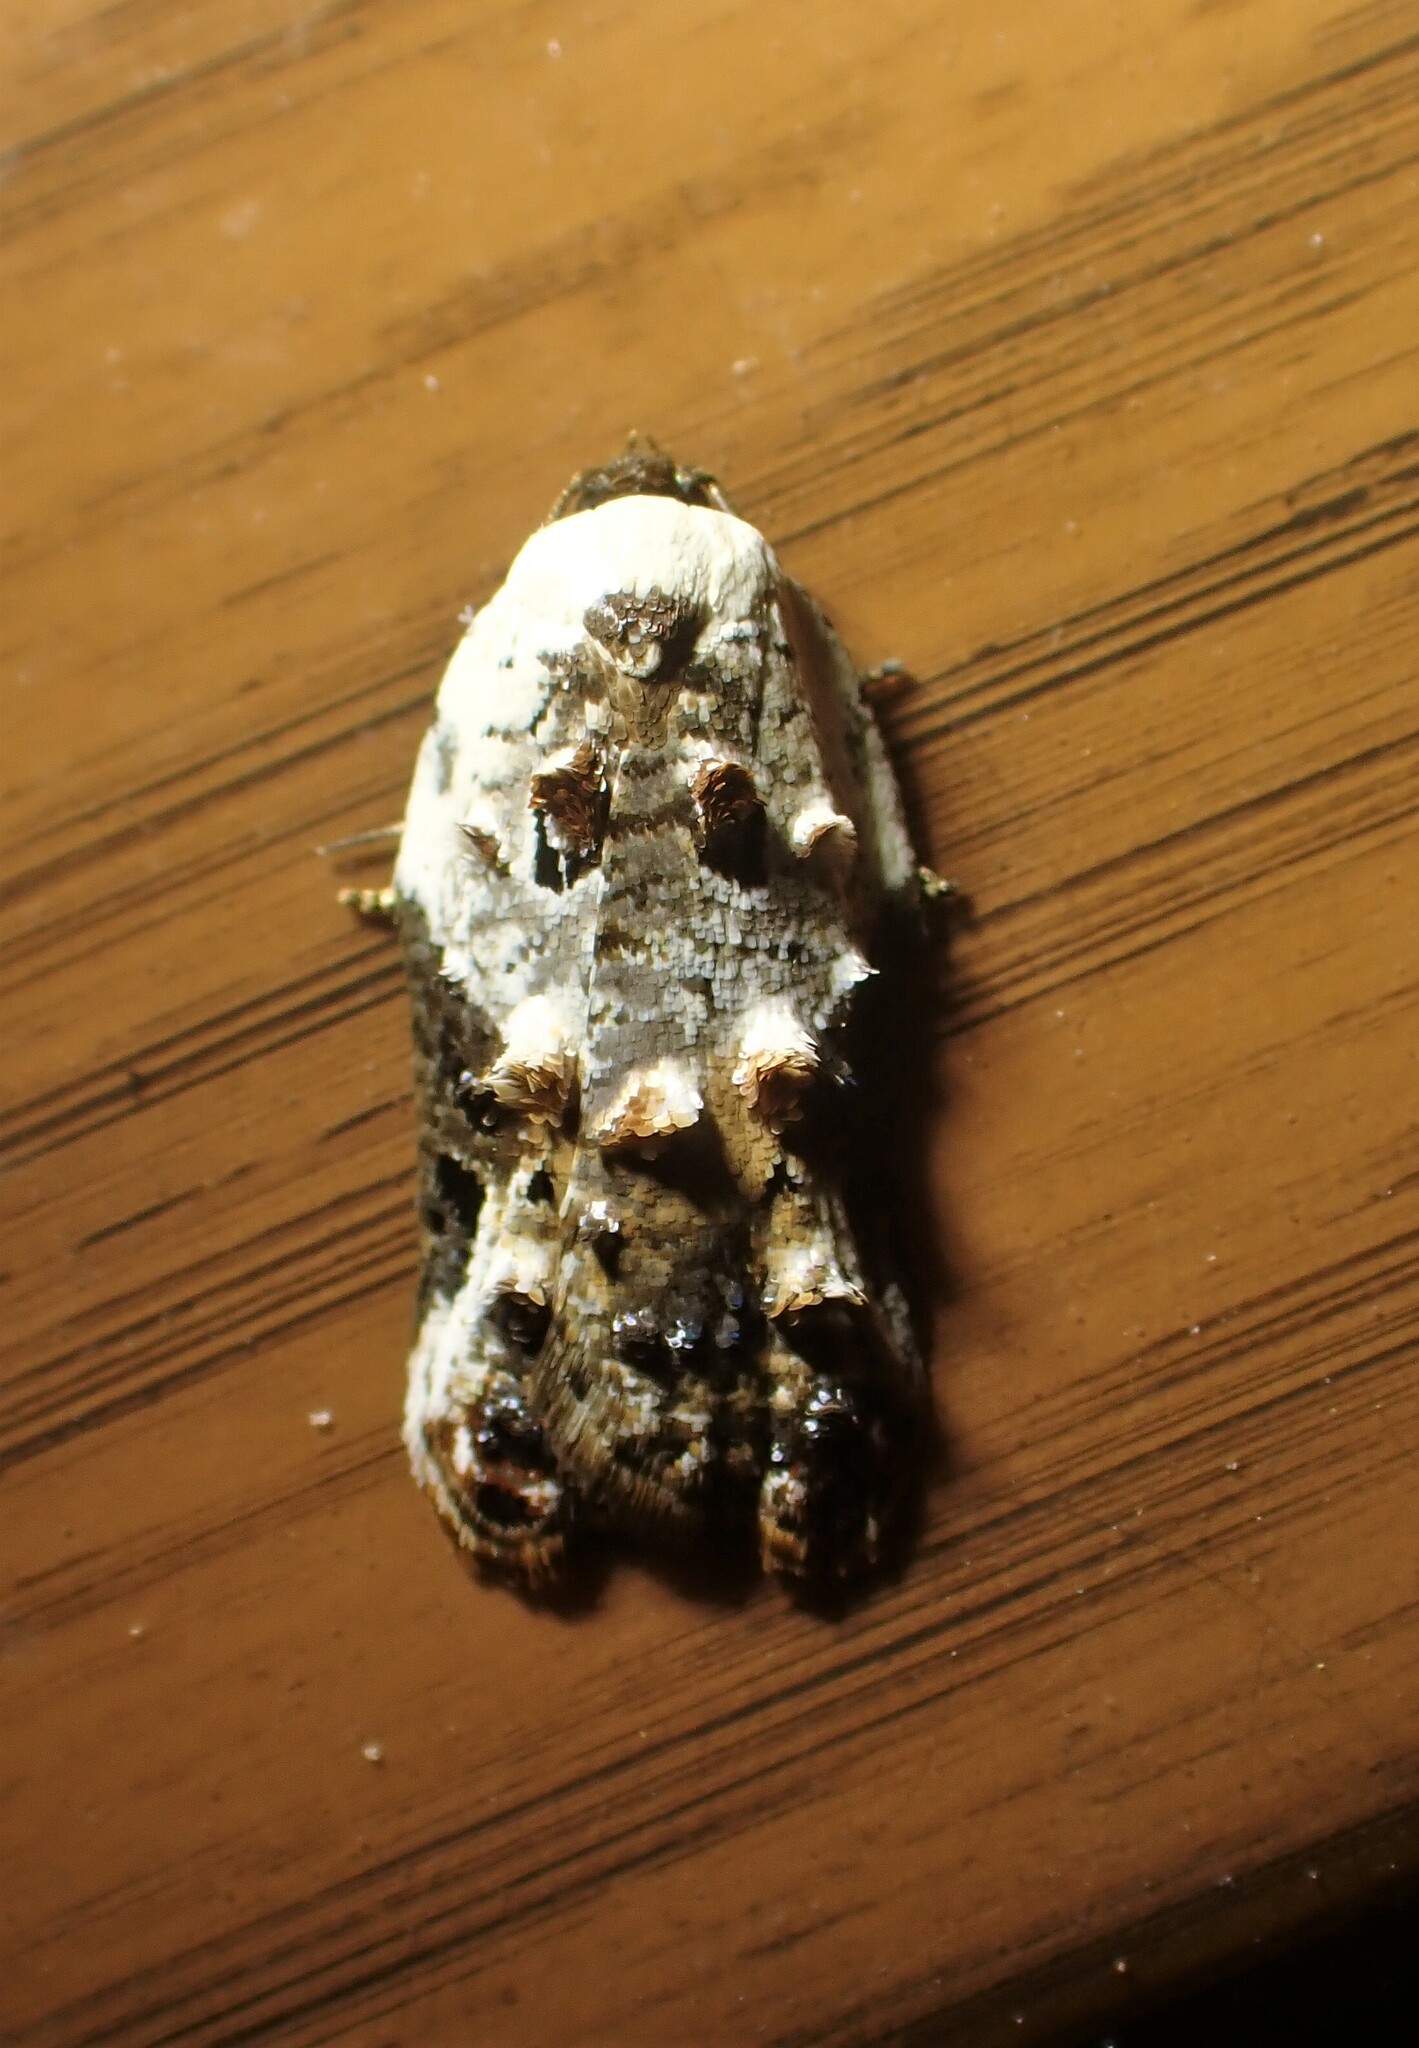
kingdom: Animalia
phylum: Arthropoda
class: Insecta
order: Lepidoptera
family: Tortricidae
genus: Acleris
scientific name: Acleris nivisellana
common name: Snowy-shouldered acleris moth
